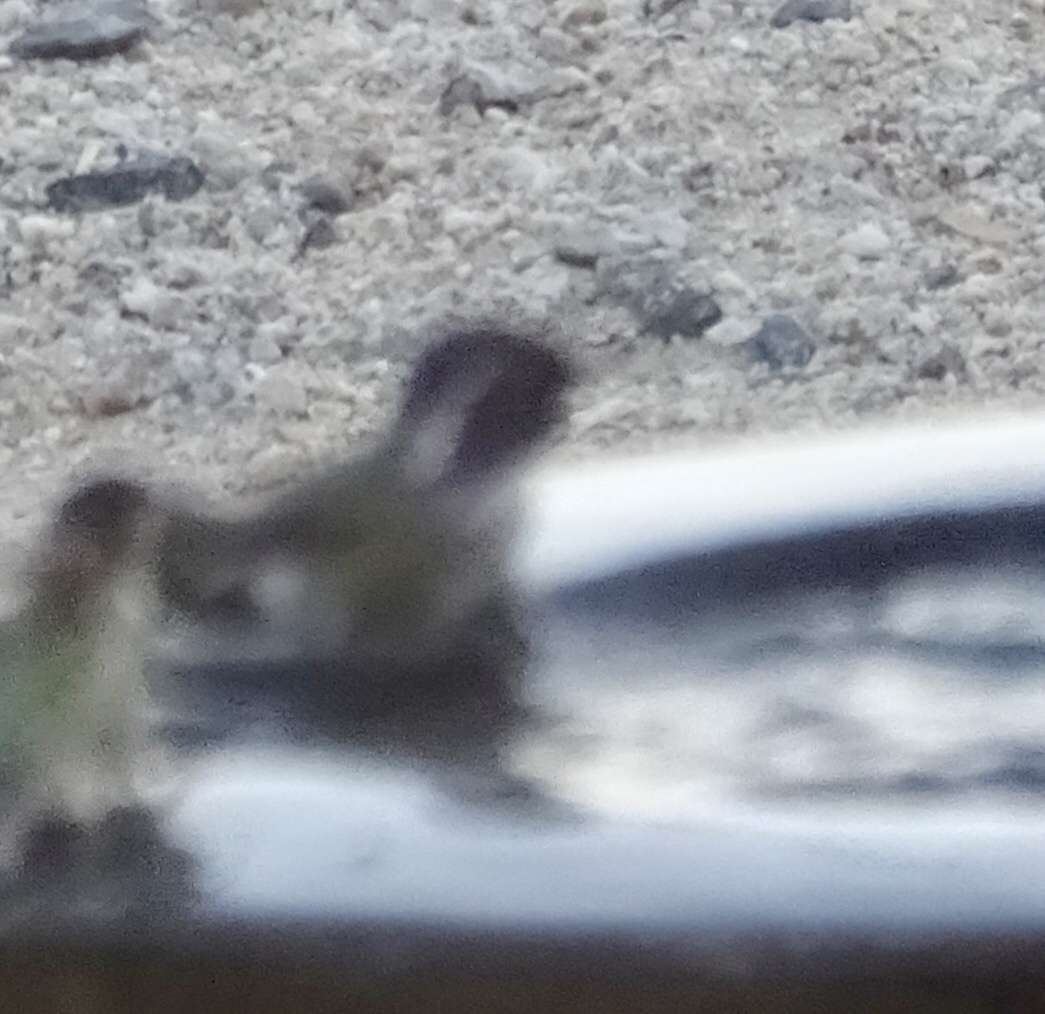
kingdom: Animalia
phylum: Chordata
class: Aves
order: Apodiformes
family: Trochilidae
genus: Calypte
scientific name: Calypte costae
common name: Costa's hummingbird
